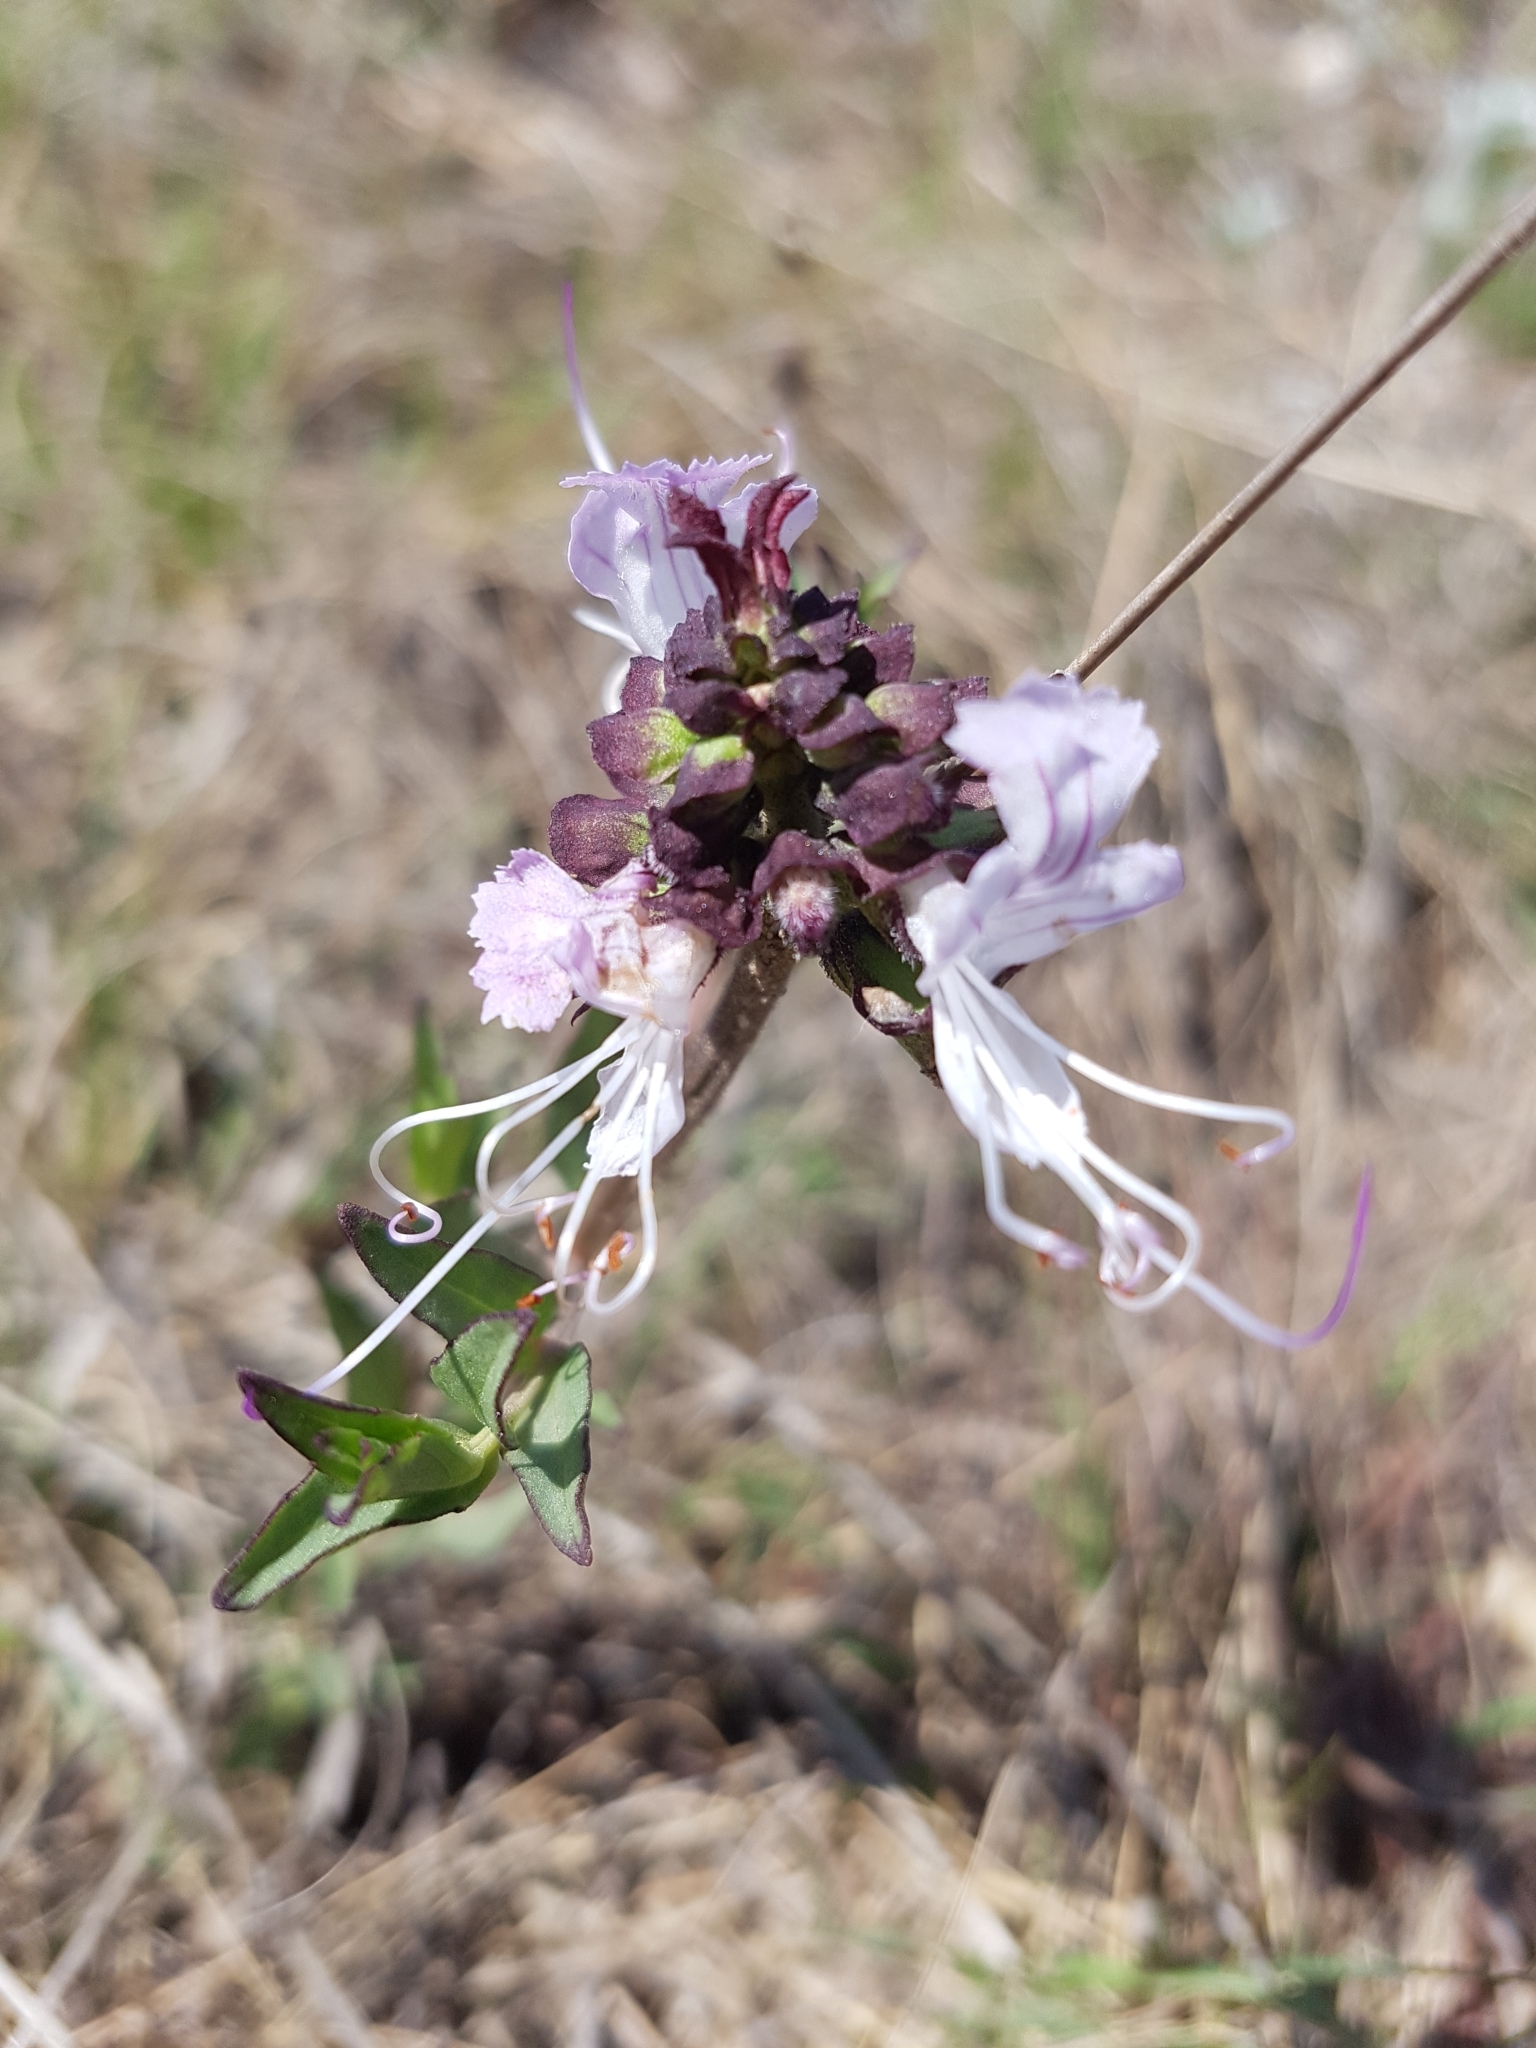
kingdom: Plantae
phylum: Tracheophyta
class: Magnoliopsida
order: Lamiales
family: Lamiaceae
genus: Ocimum
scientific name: Ocimum obovatum
